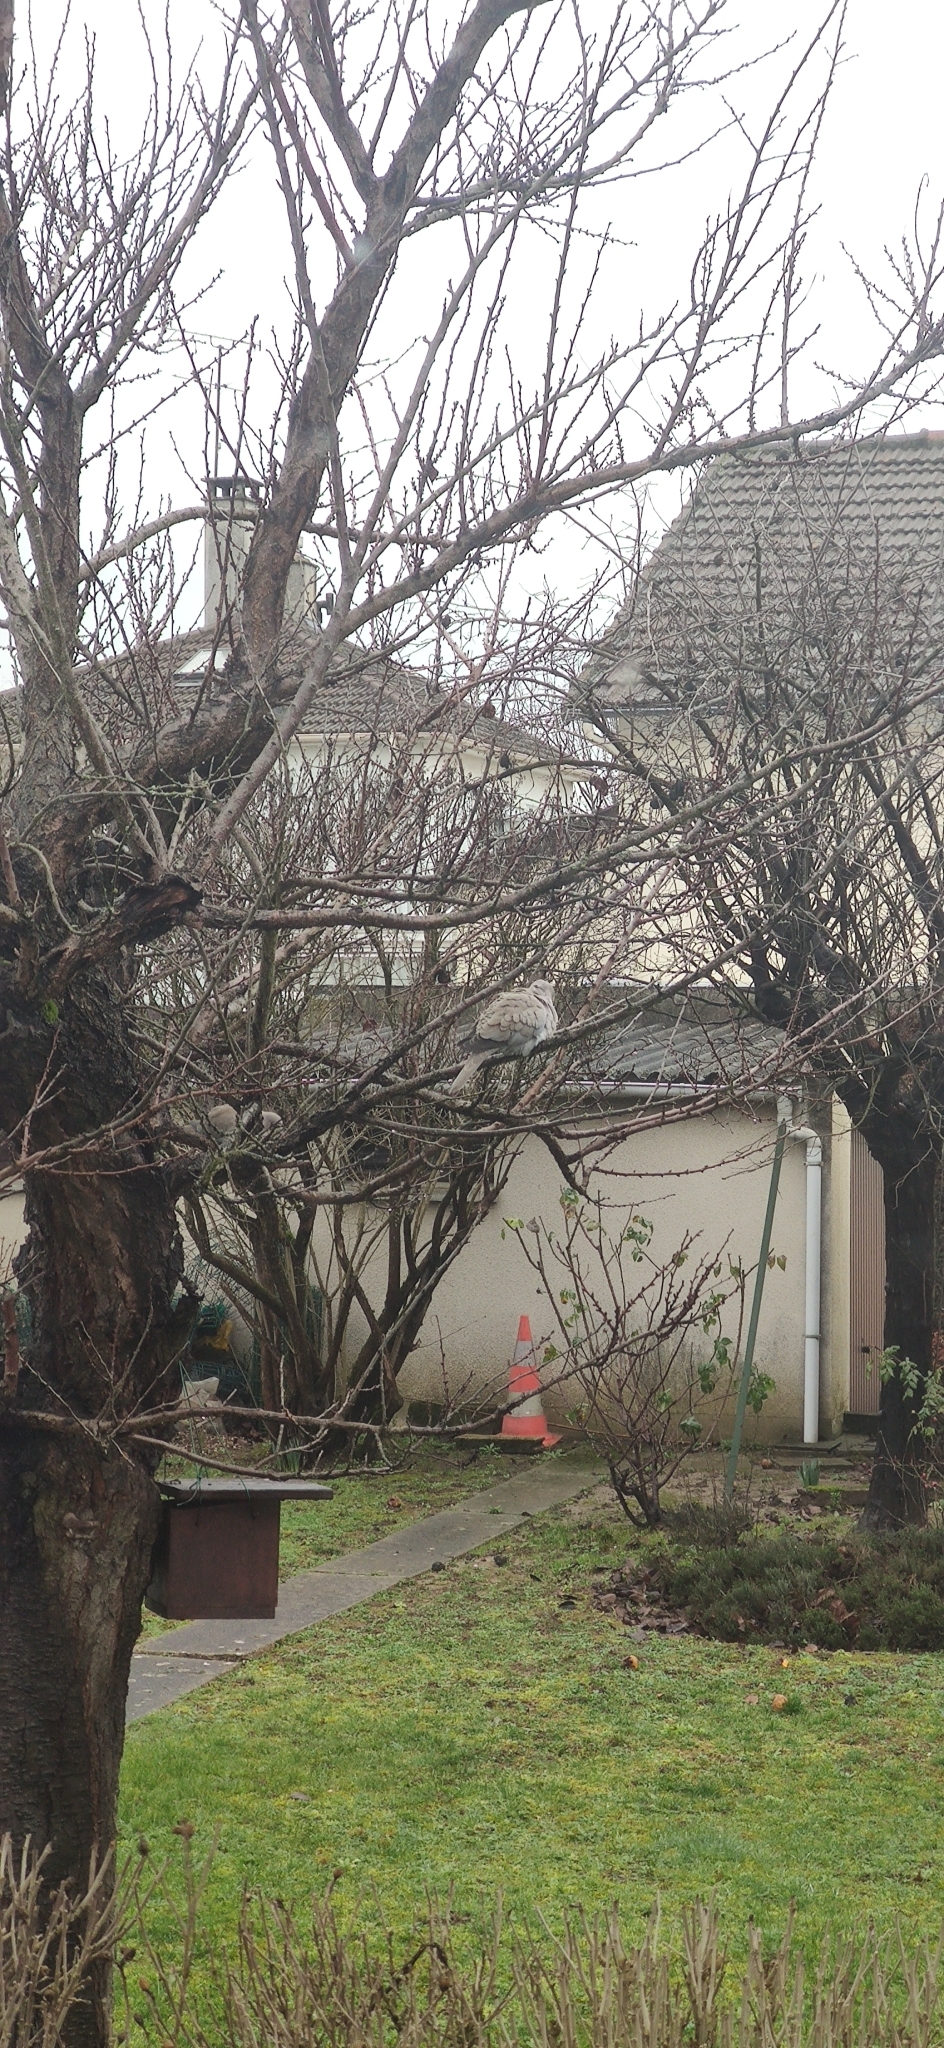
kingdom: Animalia
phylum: Chordata
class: Aves
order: Columbiformes
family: Columbidae
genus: Streptopelia
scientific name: Streptopelia decaocto
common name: Eurasian collared dove
